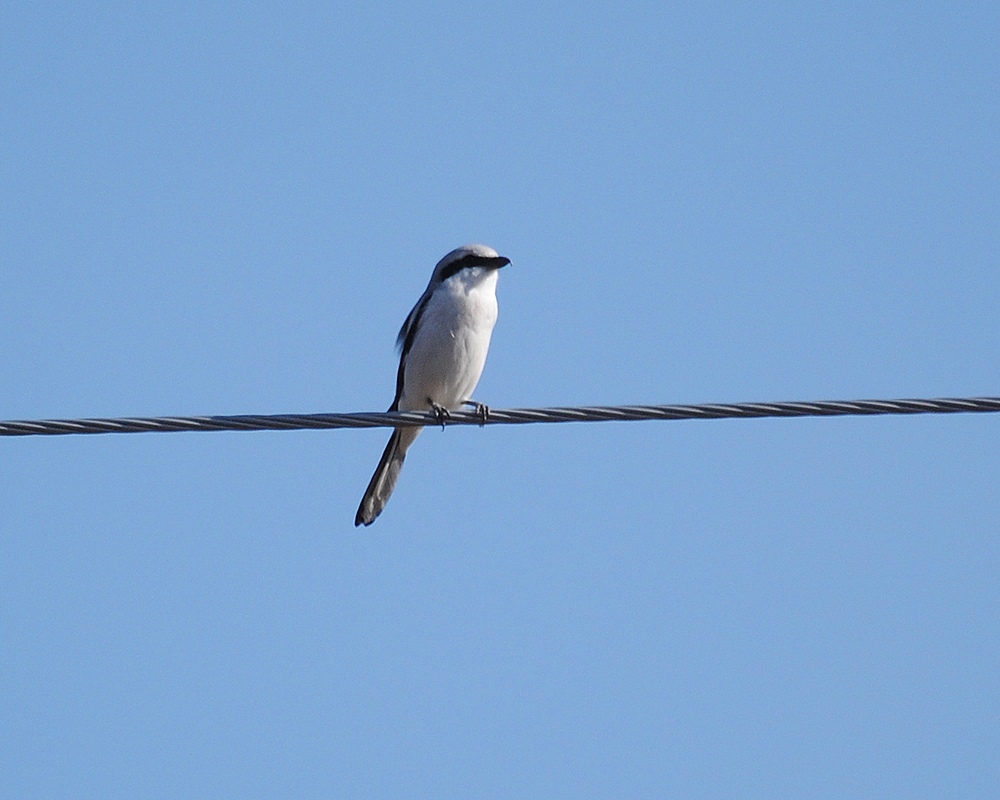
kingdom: Animalia
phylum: Chordata
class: Aves
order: Passeriformes
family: Laniidae
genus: Lanius
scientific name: Lanius excubitor
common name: Great grey shrike
